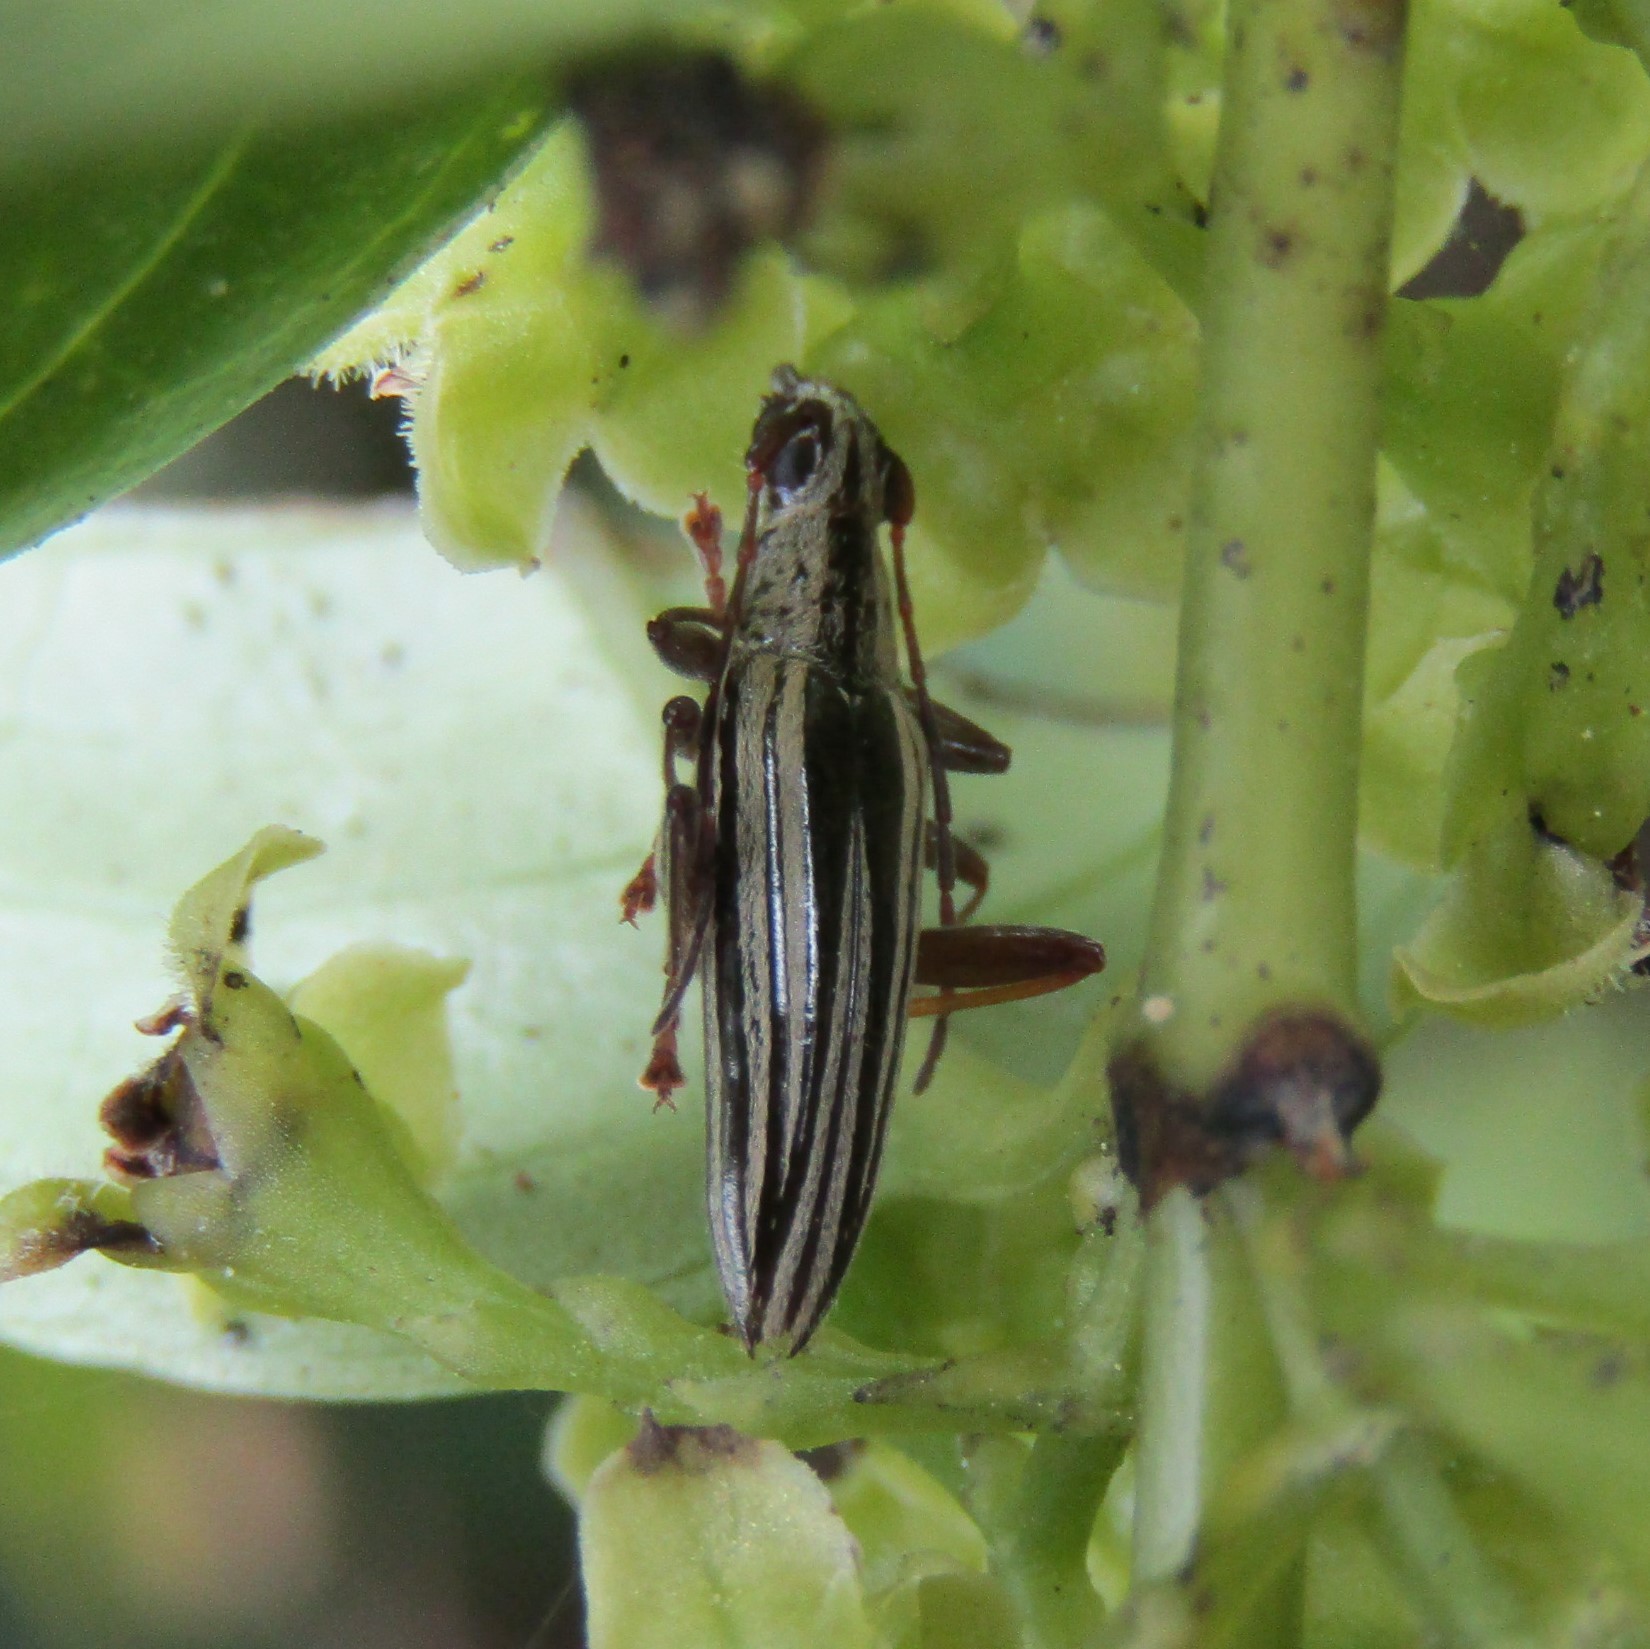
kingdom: Animalia
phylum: Arthropoda
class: Insecta
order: Coleoptera
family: Cerambycidae
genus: Coptomma
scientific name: Coptomma sulcatum
